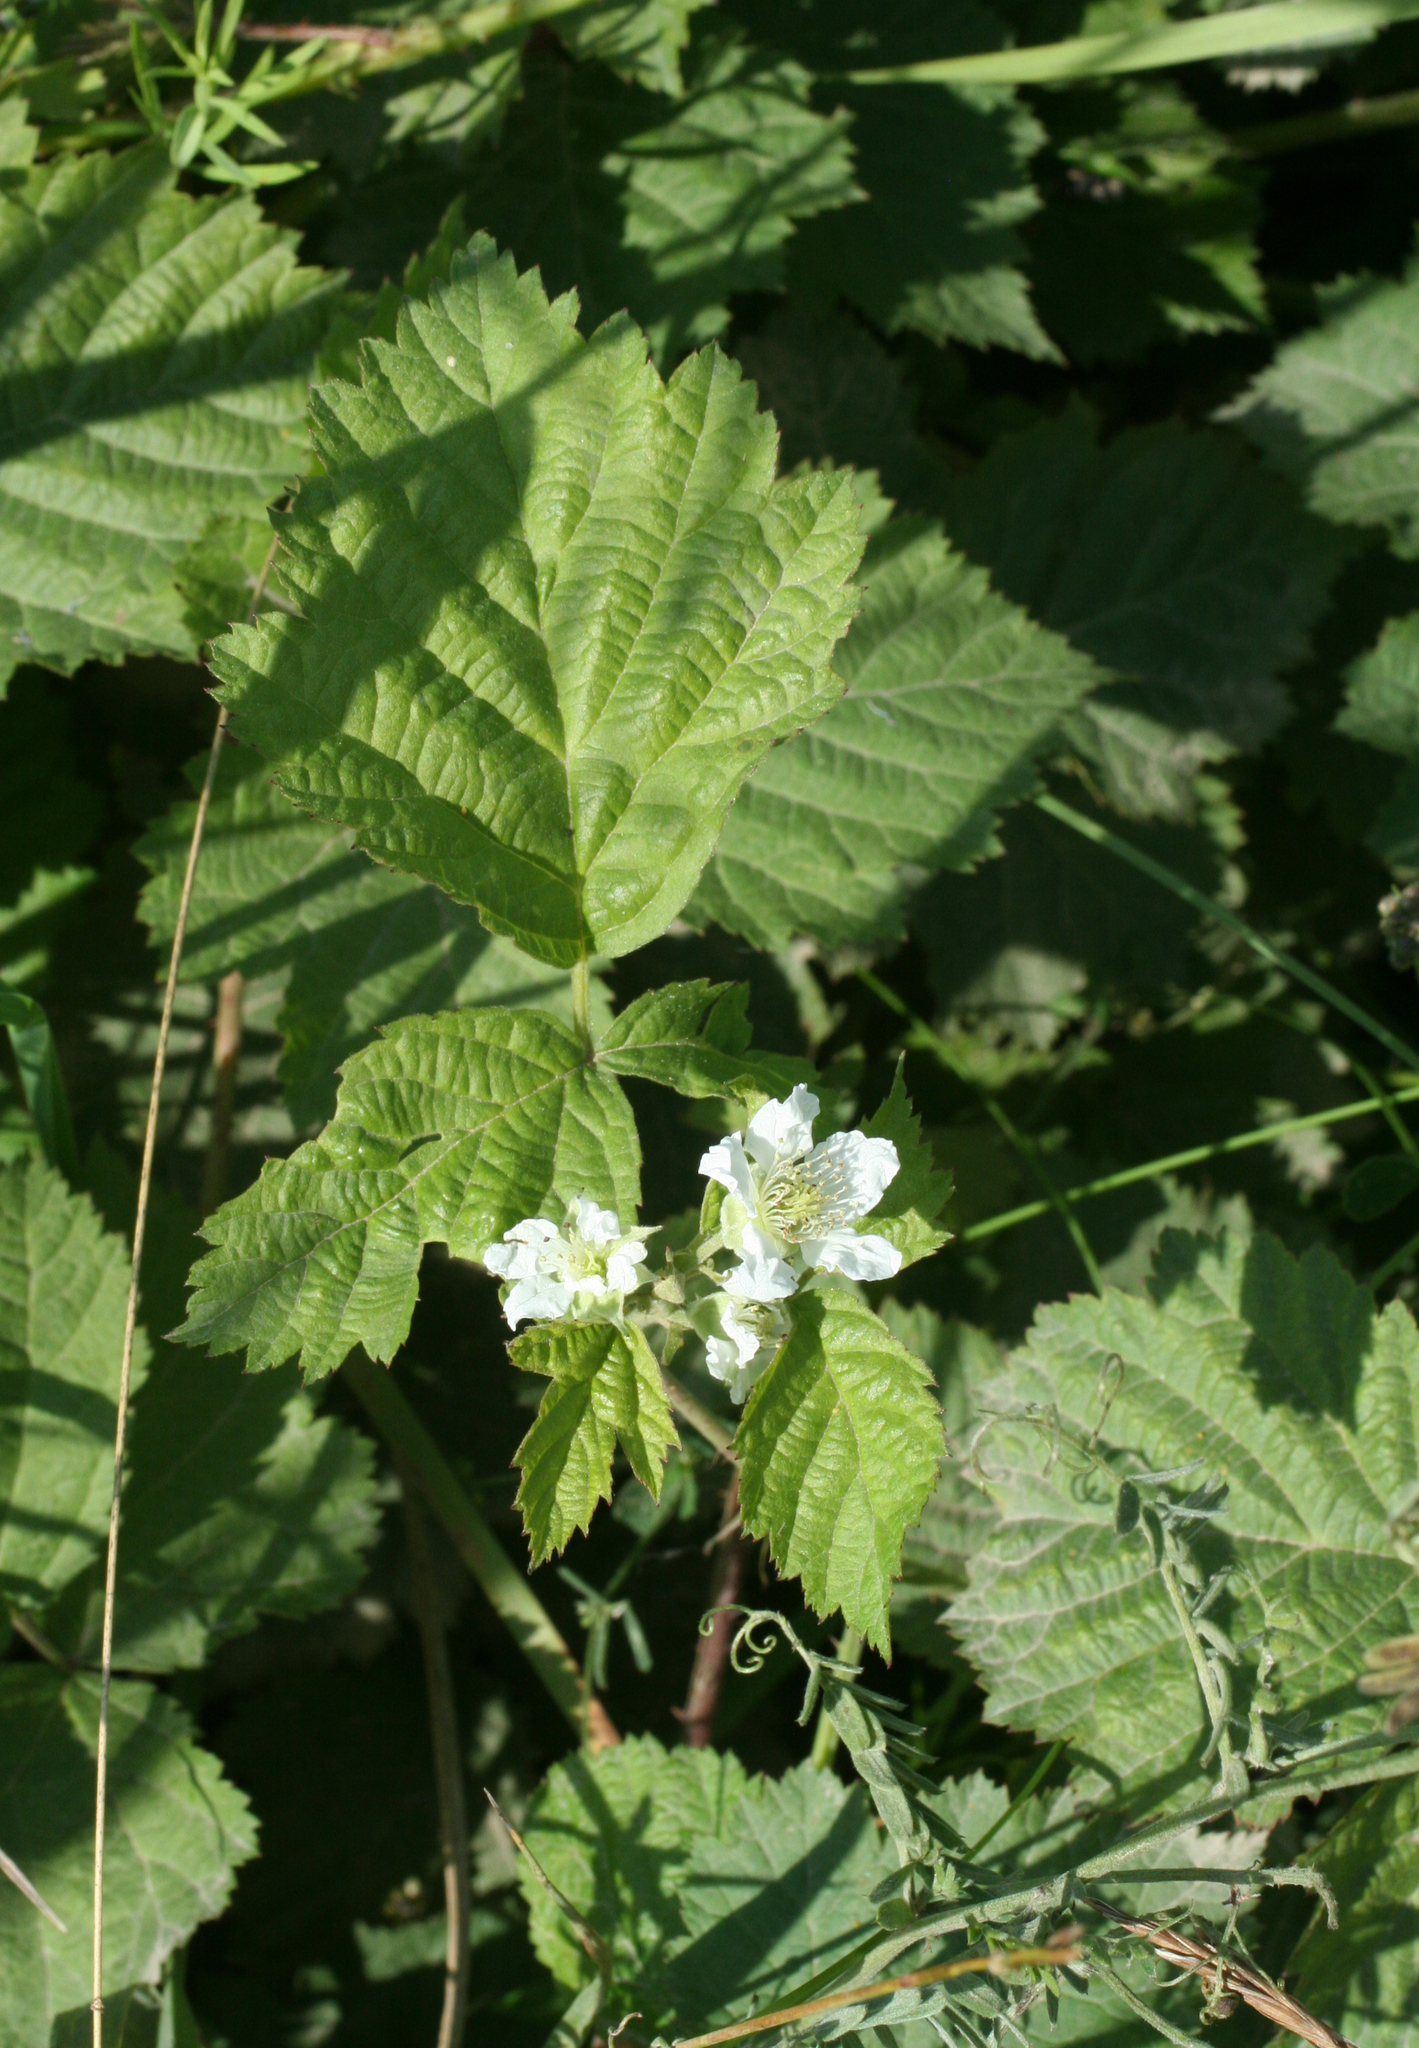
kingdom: Plantae
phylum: Tracheophyta
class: Magnoliopsida
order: Rosales
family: Rosaceae
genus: Rubus
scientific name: Rubus caesius
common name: Dewberry
